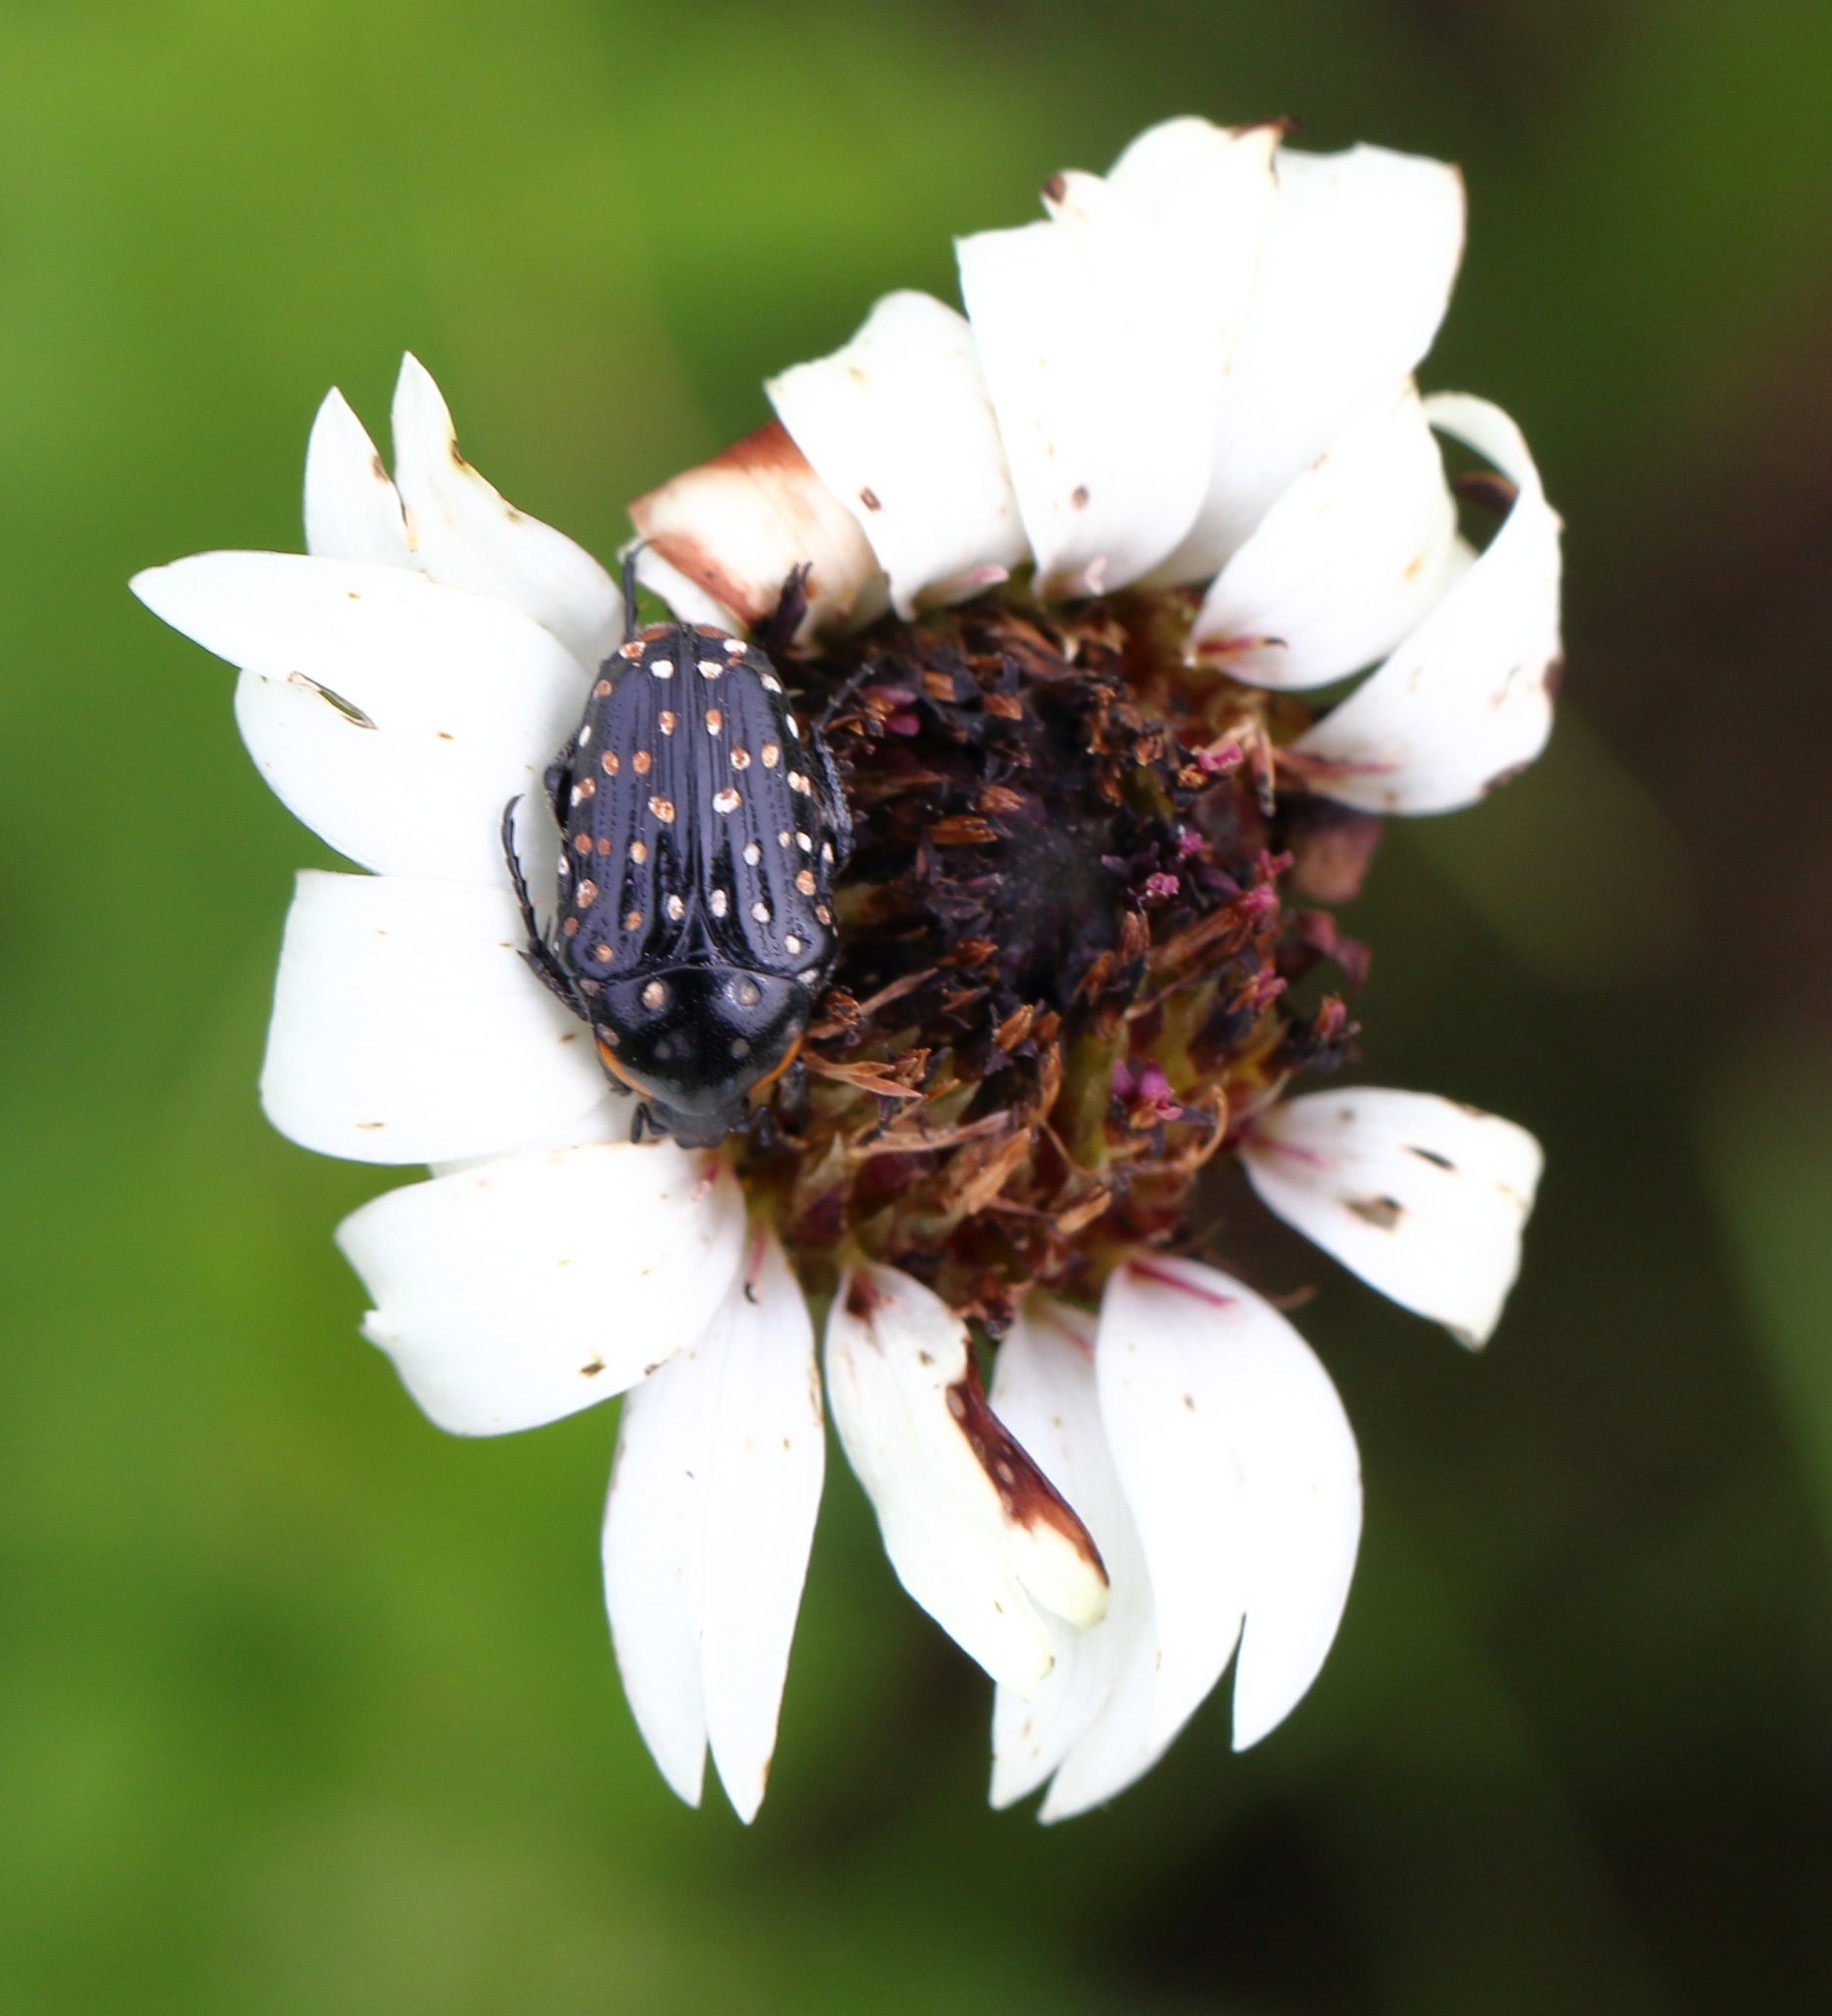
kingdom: Animalia
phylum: Arthropoda
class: Insecta
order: Coleoptera
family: Scarabaeidae
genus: Oxythyrea
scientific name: Oxythyrea
